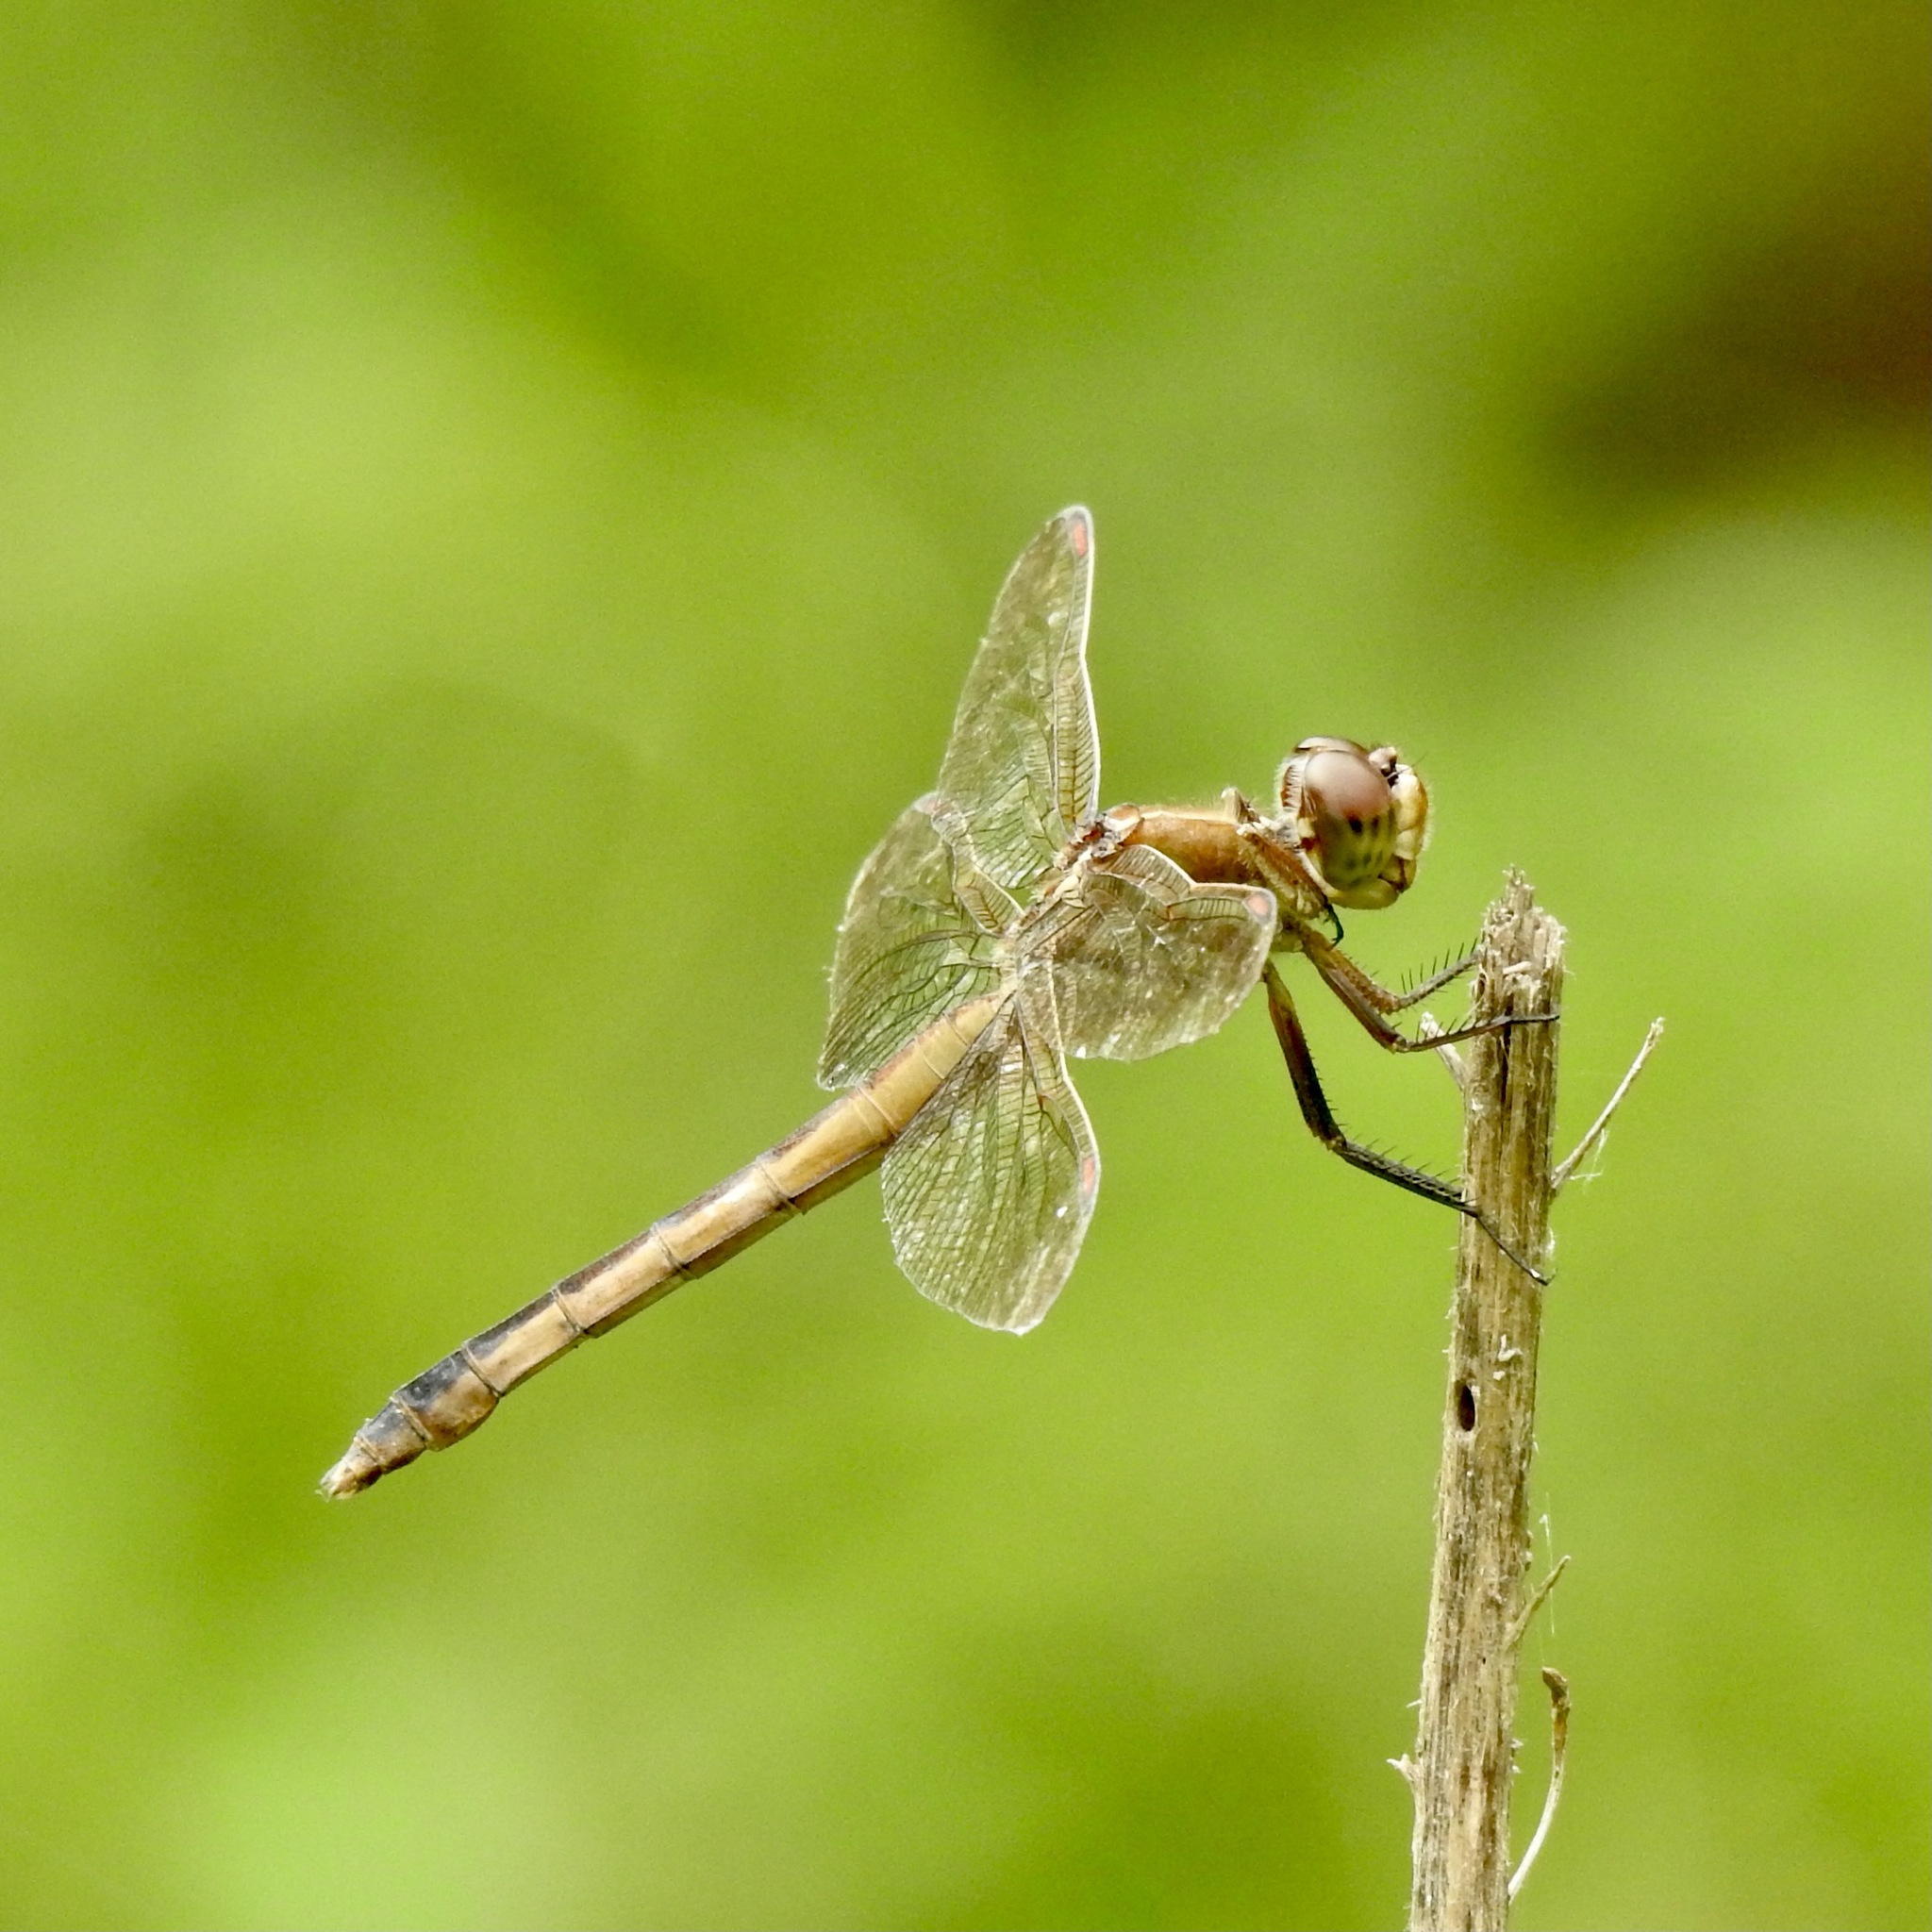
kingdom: Animalia
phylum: Arthropoda
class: Insecta
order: Odonata
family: Libellulidae
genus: Libellula
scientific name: Libellula auripennis
